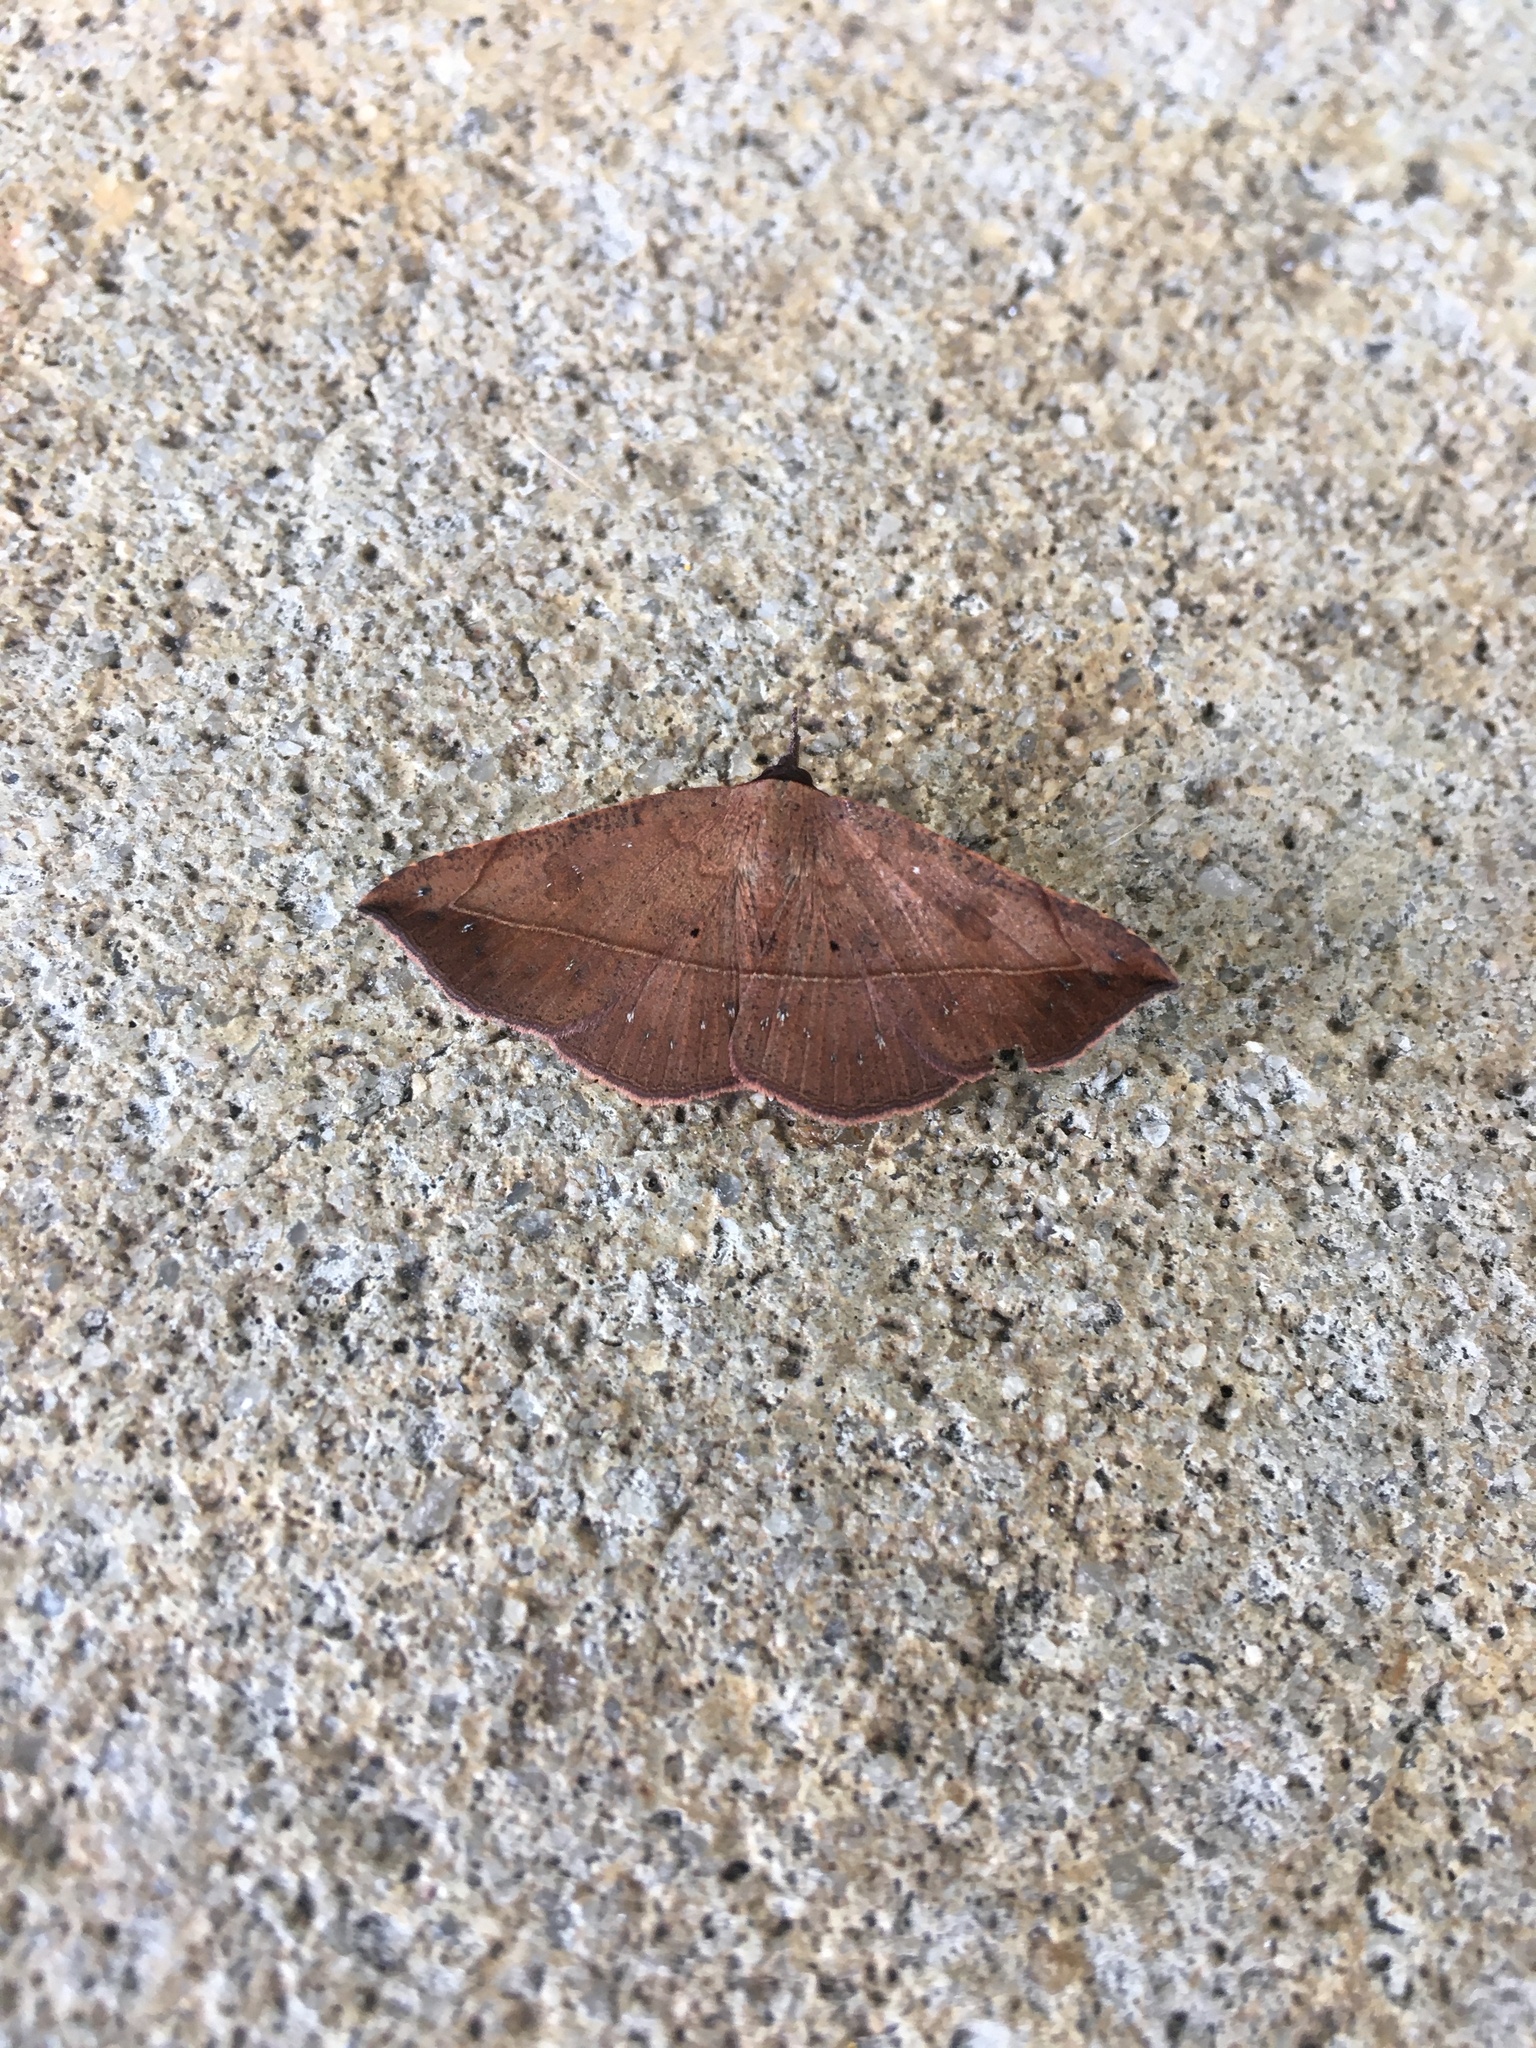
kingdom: Animalia
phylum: Arthropoda
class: Insecta
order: Lepidoptera
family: Erebidae
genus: Metallata
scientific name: Metallata absumens
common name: Brown leaf mimic
